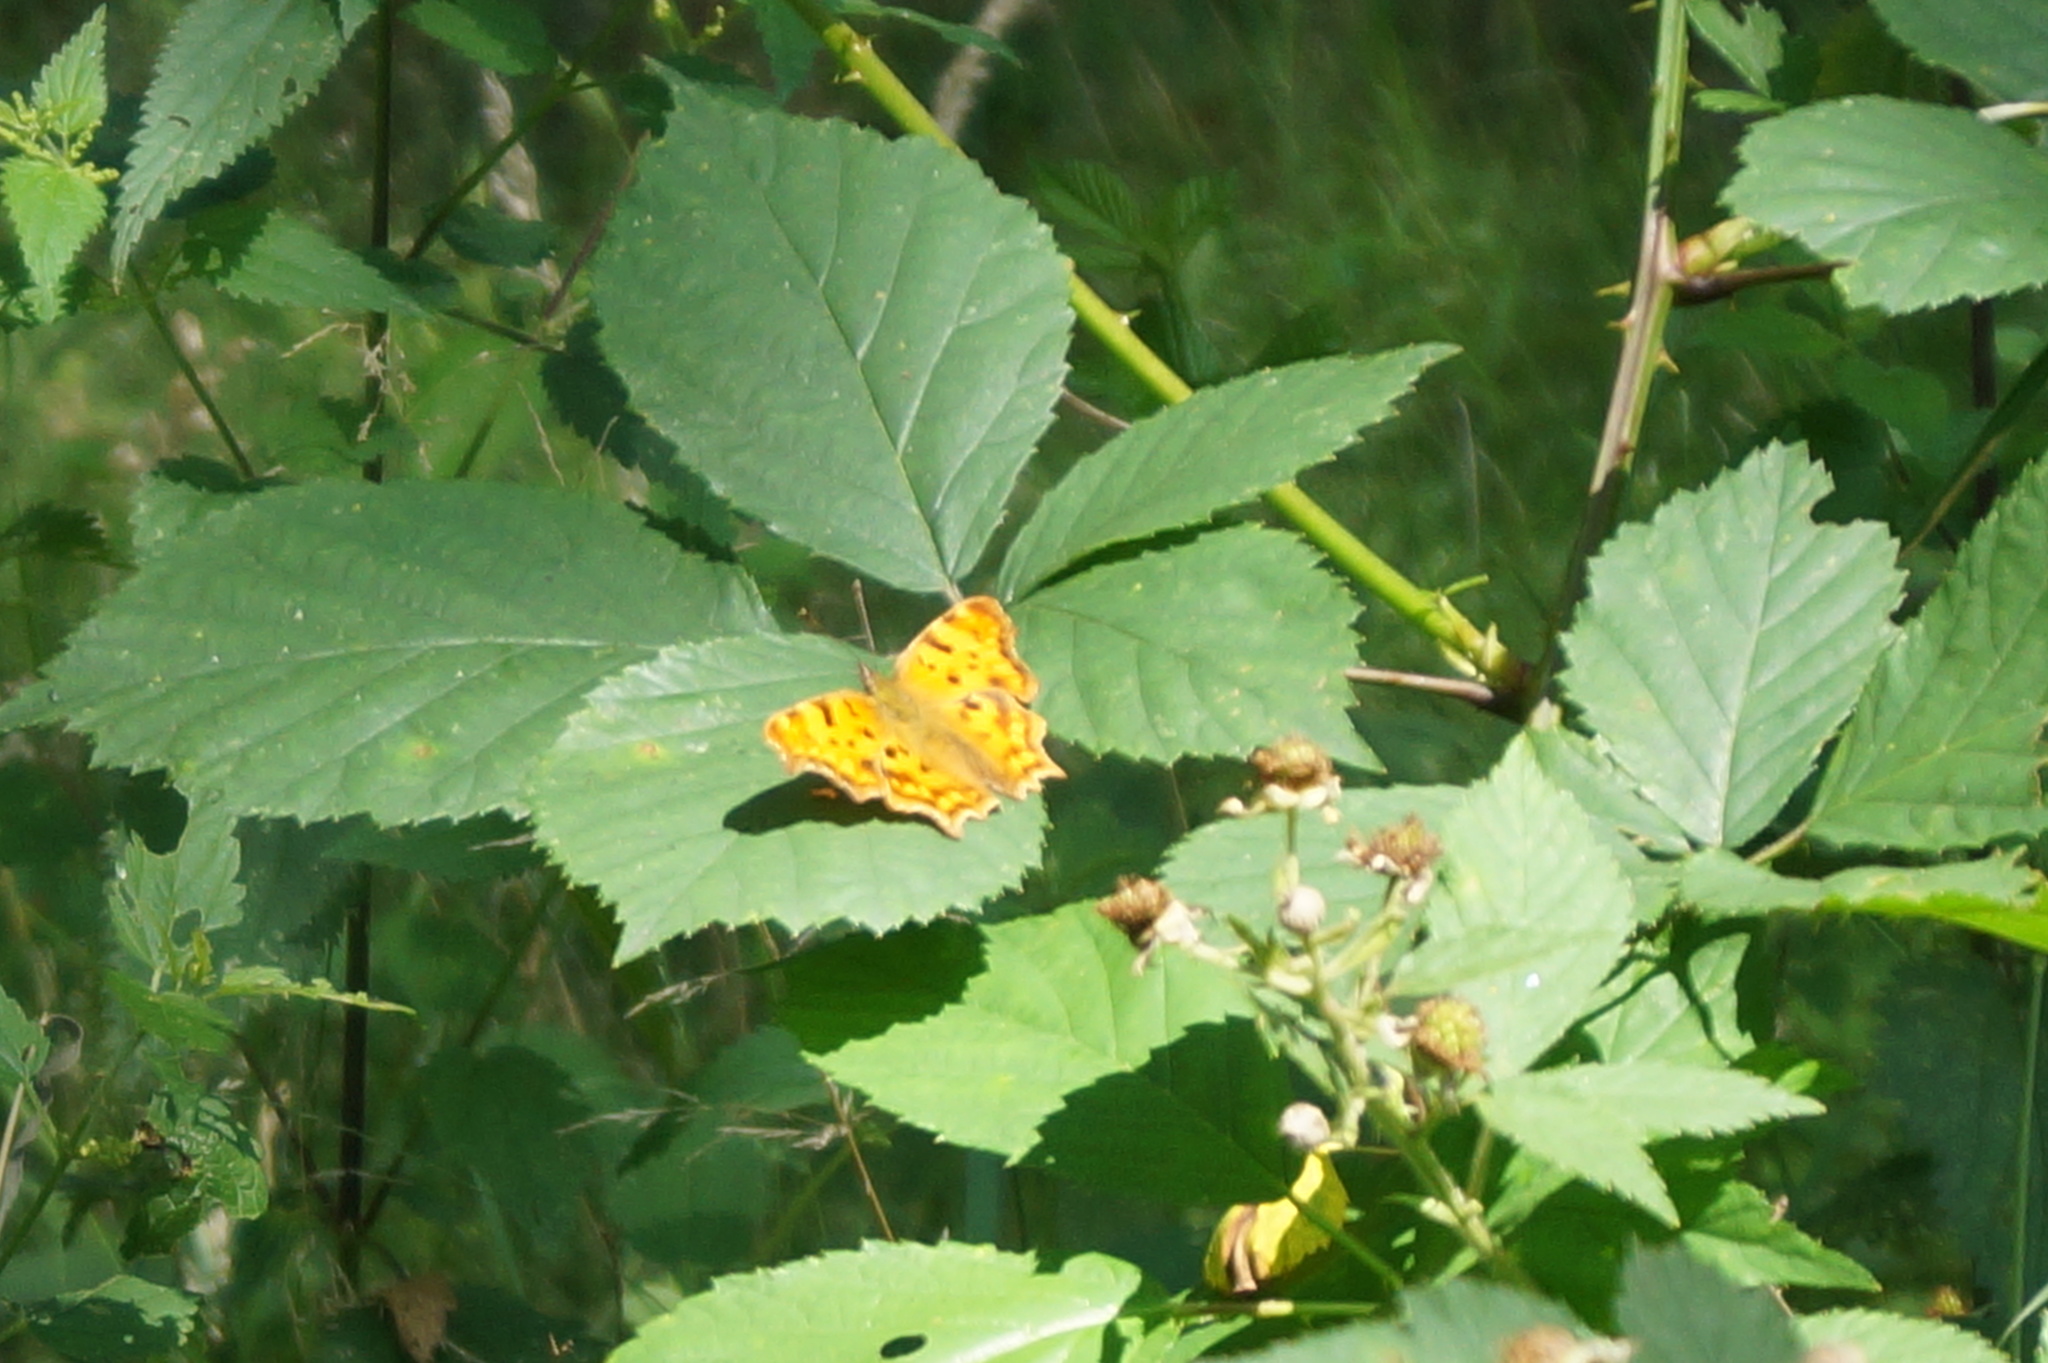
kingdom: Animalia
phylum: Arthropoda
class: Insecta
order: Lepidoptera
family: Nymphalidae
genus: Polygonia
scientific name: Polygonia c-album
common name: Comma
